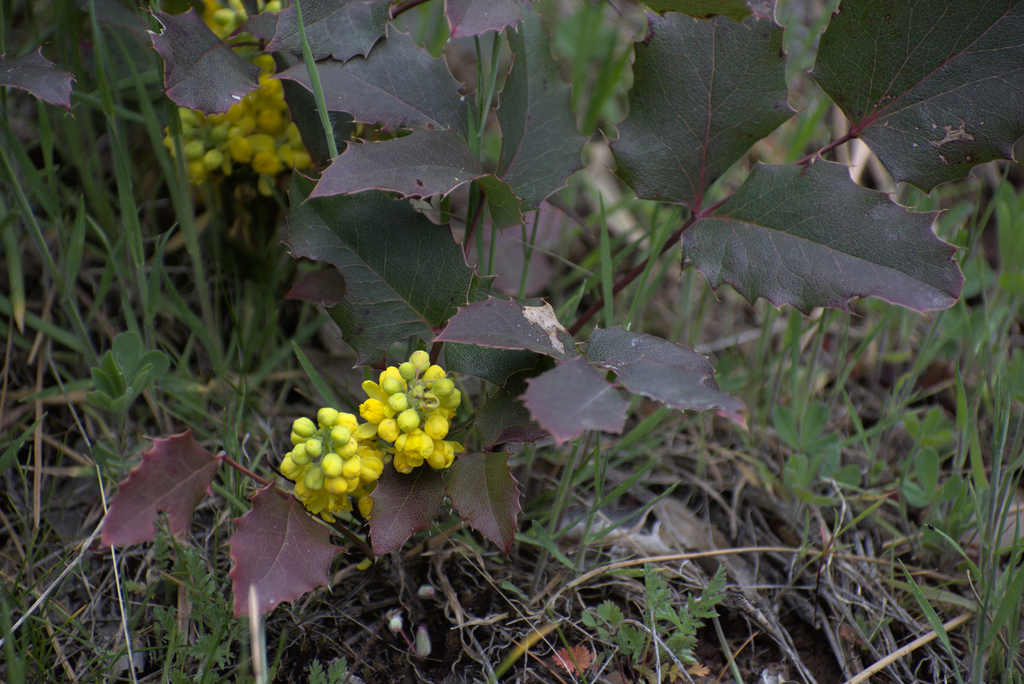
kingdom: Plantae
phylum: Tracheophyta
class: Magnoliopsida
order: Ranunculales
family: Berberidaceae
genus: Mahonia
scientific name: Mahonia repens
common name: Creeping oregon-grape
